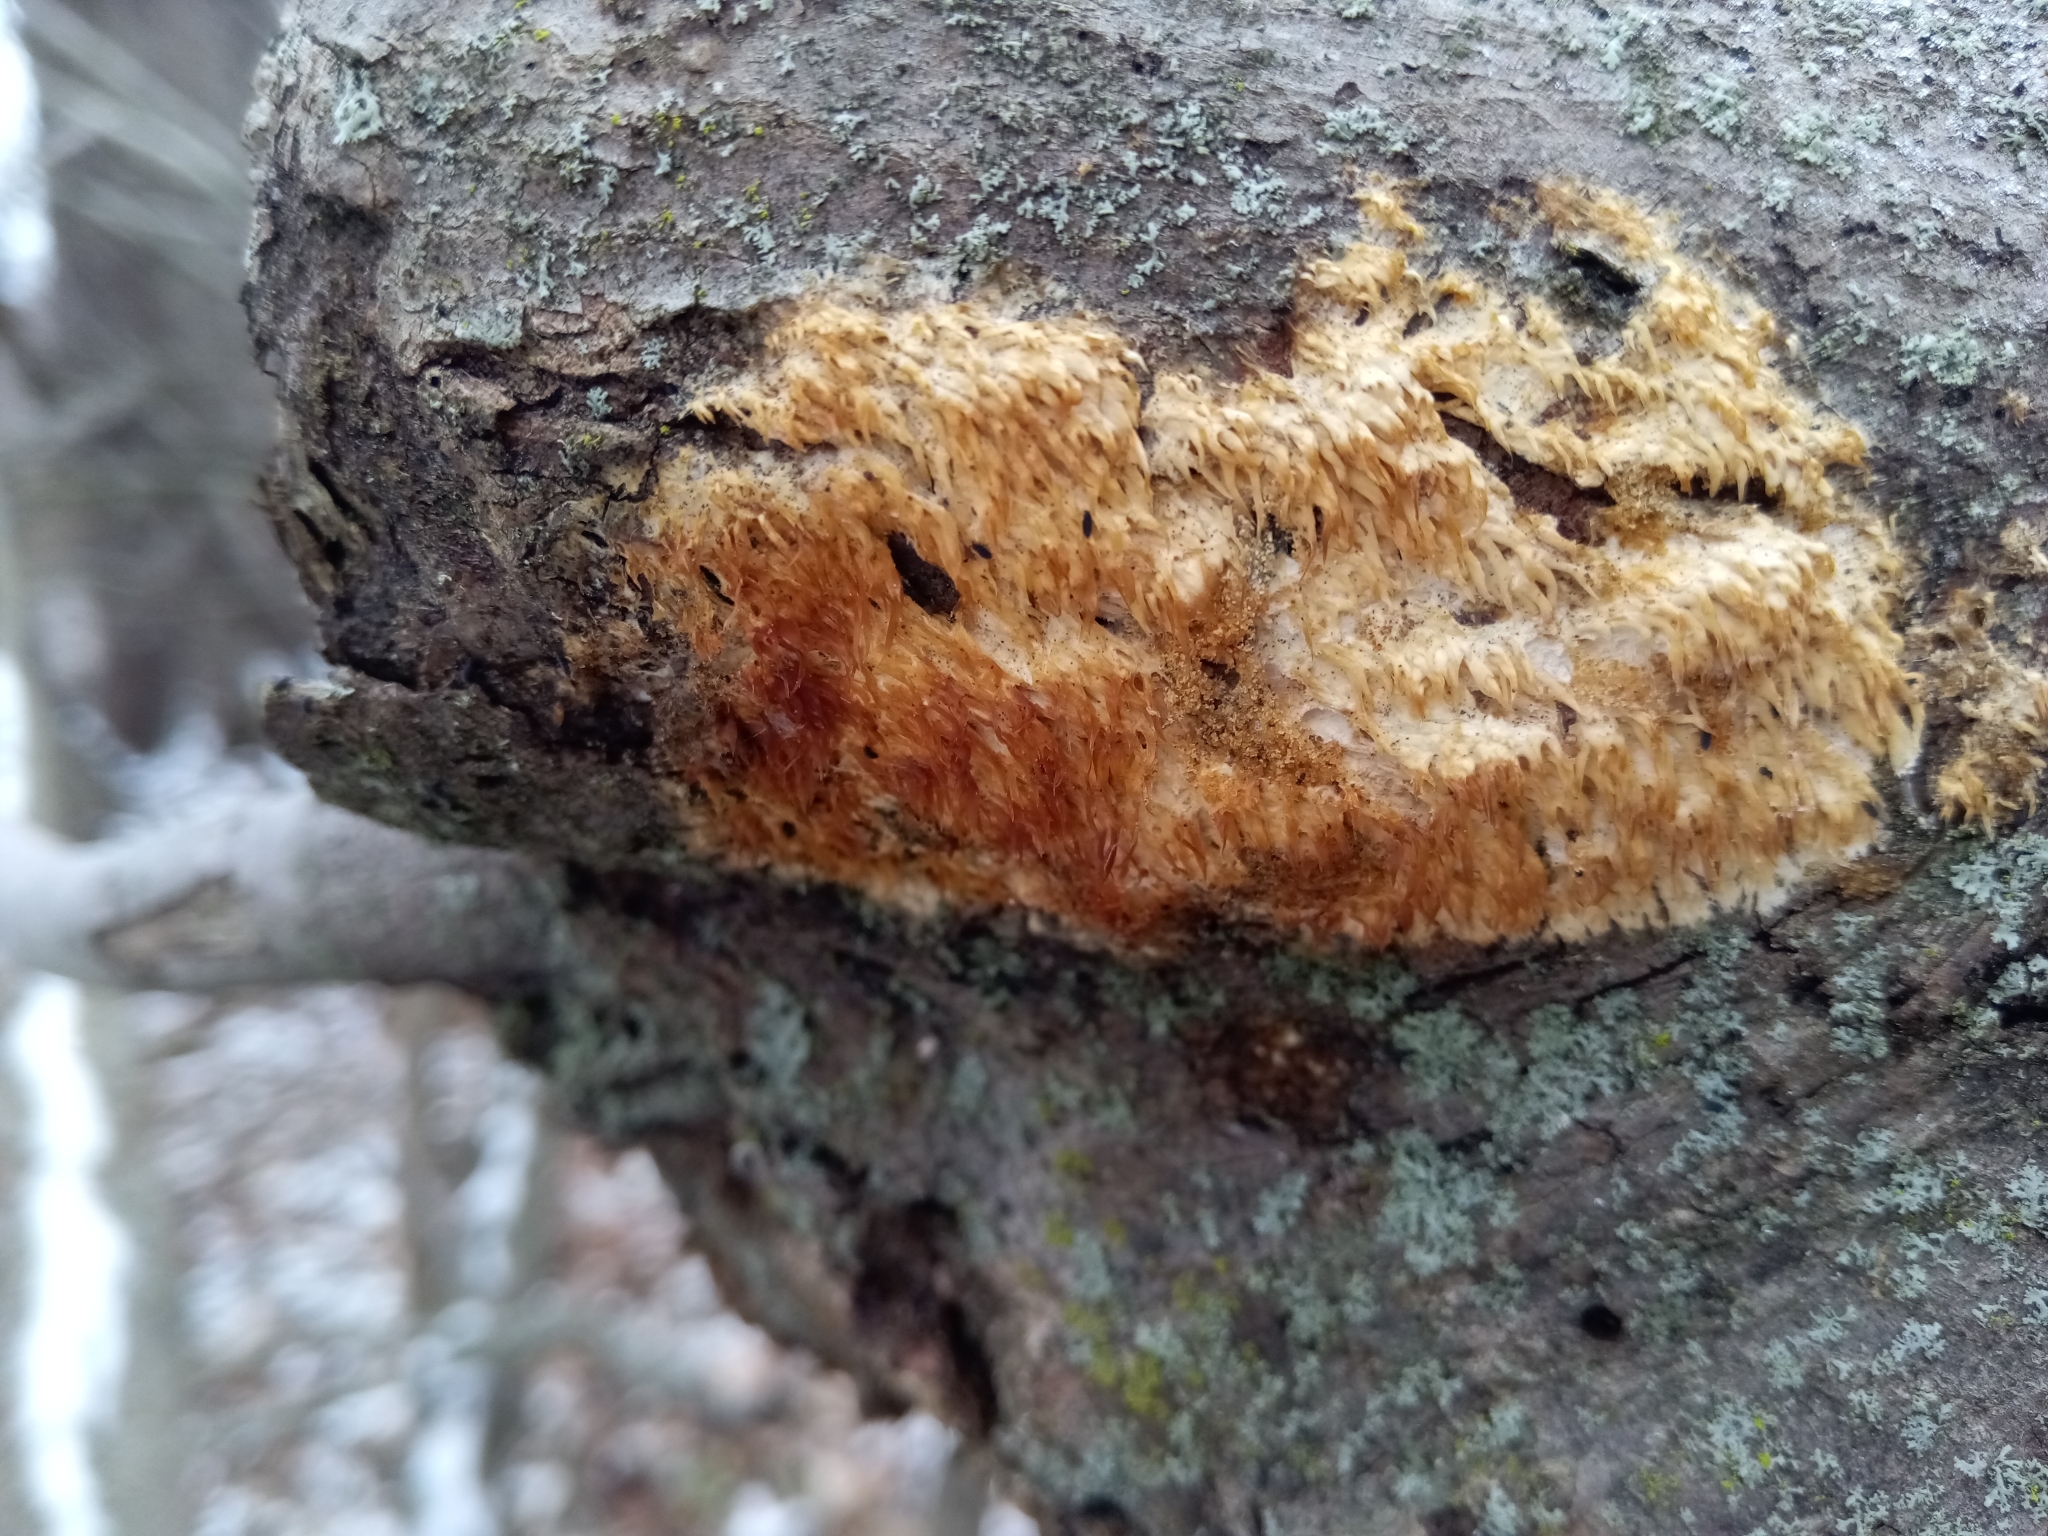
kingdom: Fungi
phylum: Basidiomycota
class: Agaricomycetes
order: Agaricales
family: Radulomycetaceae
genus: Radulomyces
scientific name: Radulomyces copelandii
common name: Asian beauty
